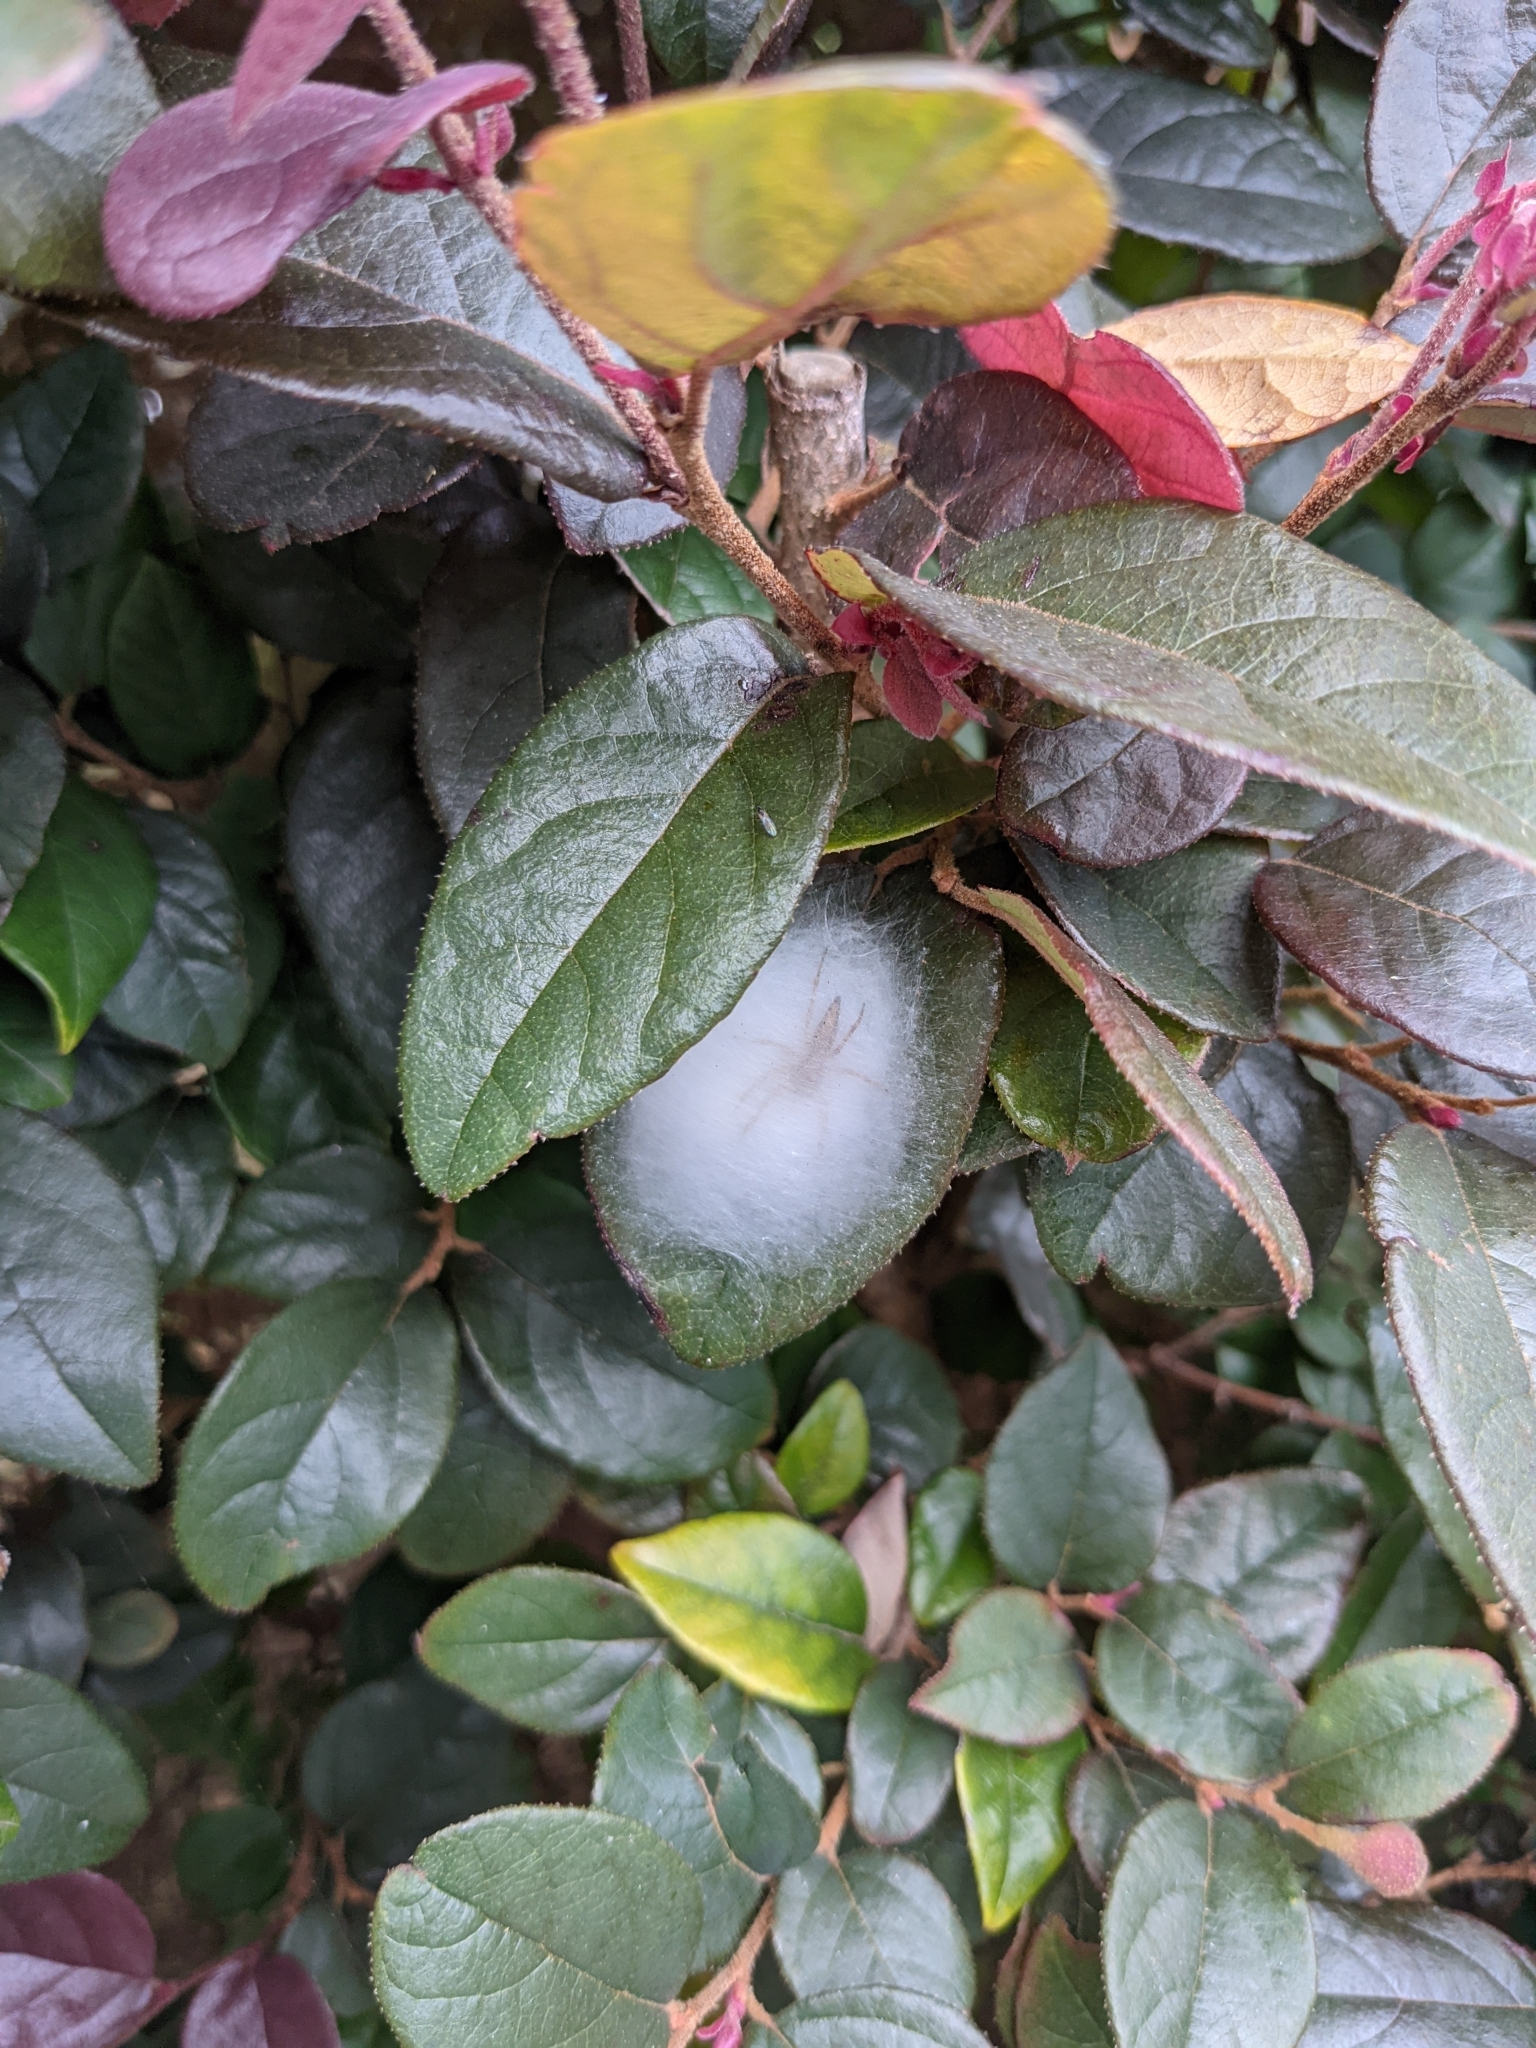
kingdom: Animalia
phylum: Arthropoda
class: Arachnida
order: Araneae
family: Salticidae
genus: Helpis
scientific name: Helpis minitabunda
